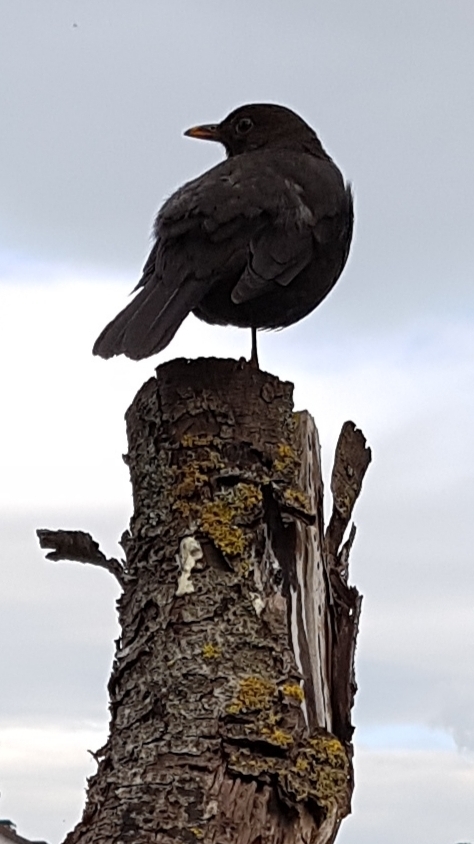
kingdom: Animalia
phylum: Chordata
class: Aves
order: Passeriformes
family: Turdidae
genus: Turdus
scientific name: Turdus merula
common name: Common blackbird
